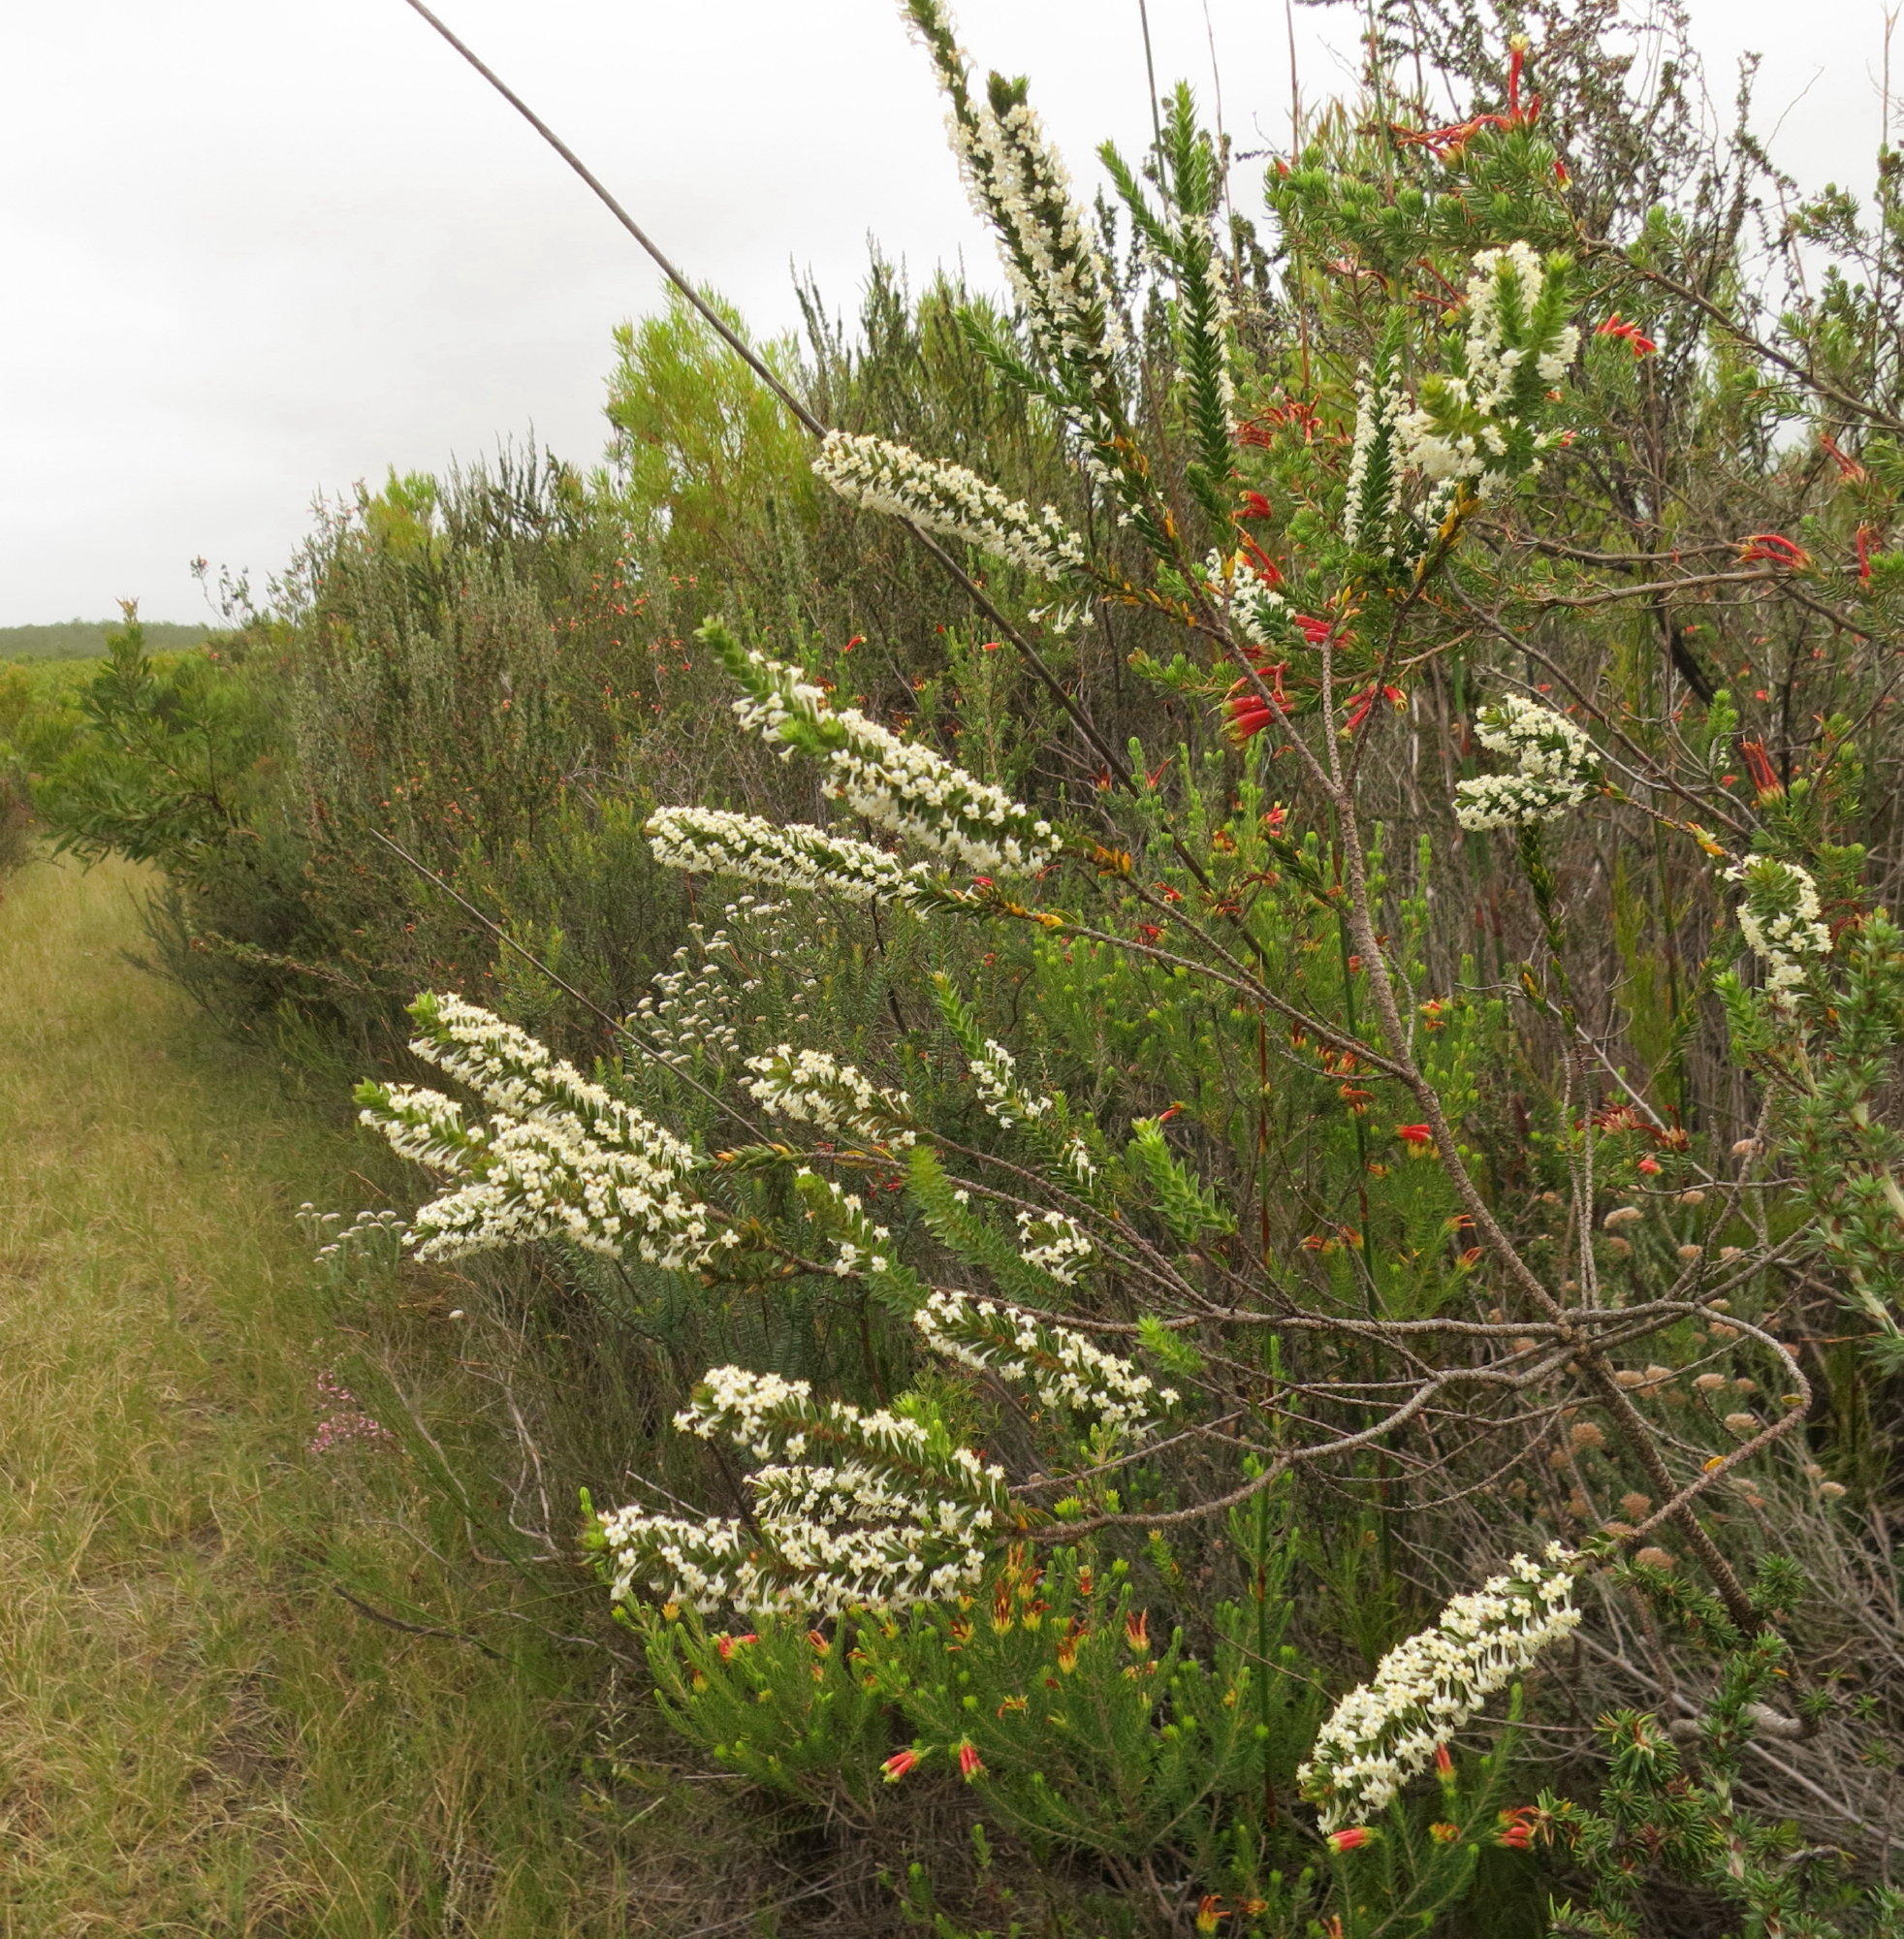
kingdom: Plantae
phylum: Tracheophyta
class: Magnoliopsida
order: Malvales
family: Thymelaeaceae
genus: Struthiola
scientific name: Struthiola hirsuta
